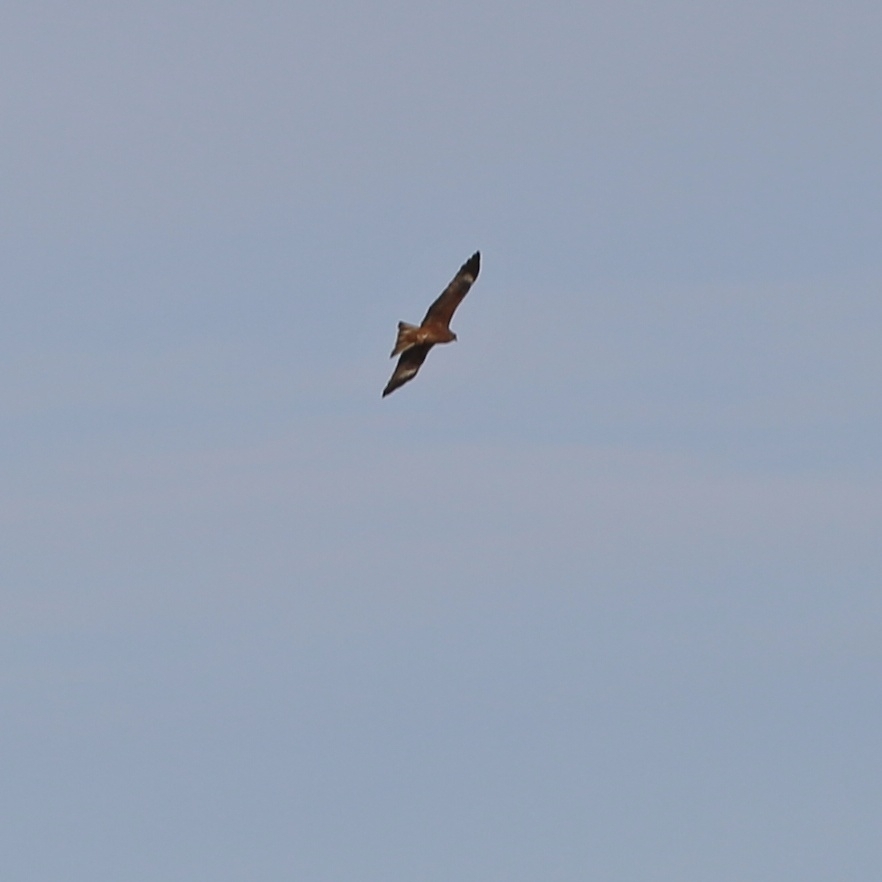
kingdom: Animalia
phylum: Chordata
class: Aves
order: Accipitriformes
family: Accipitridae
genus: Milvus
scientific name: Milvus migrans
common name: Black kite
